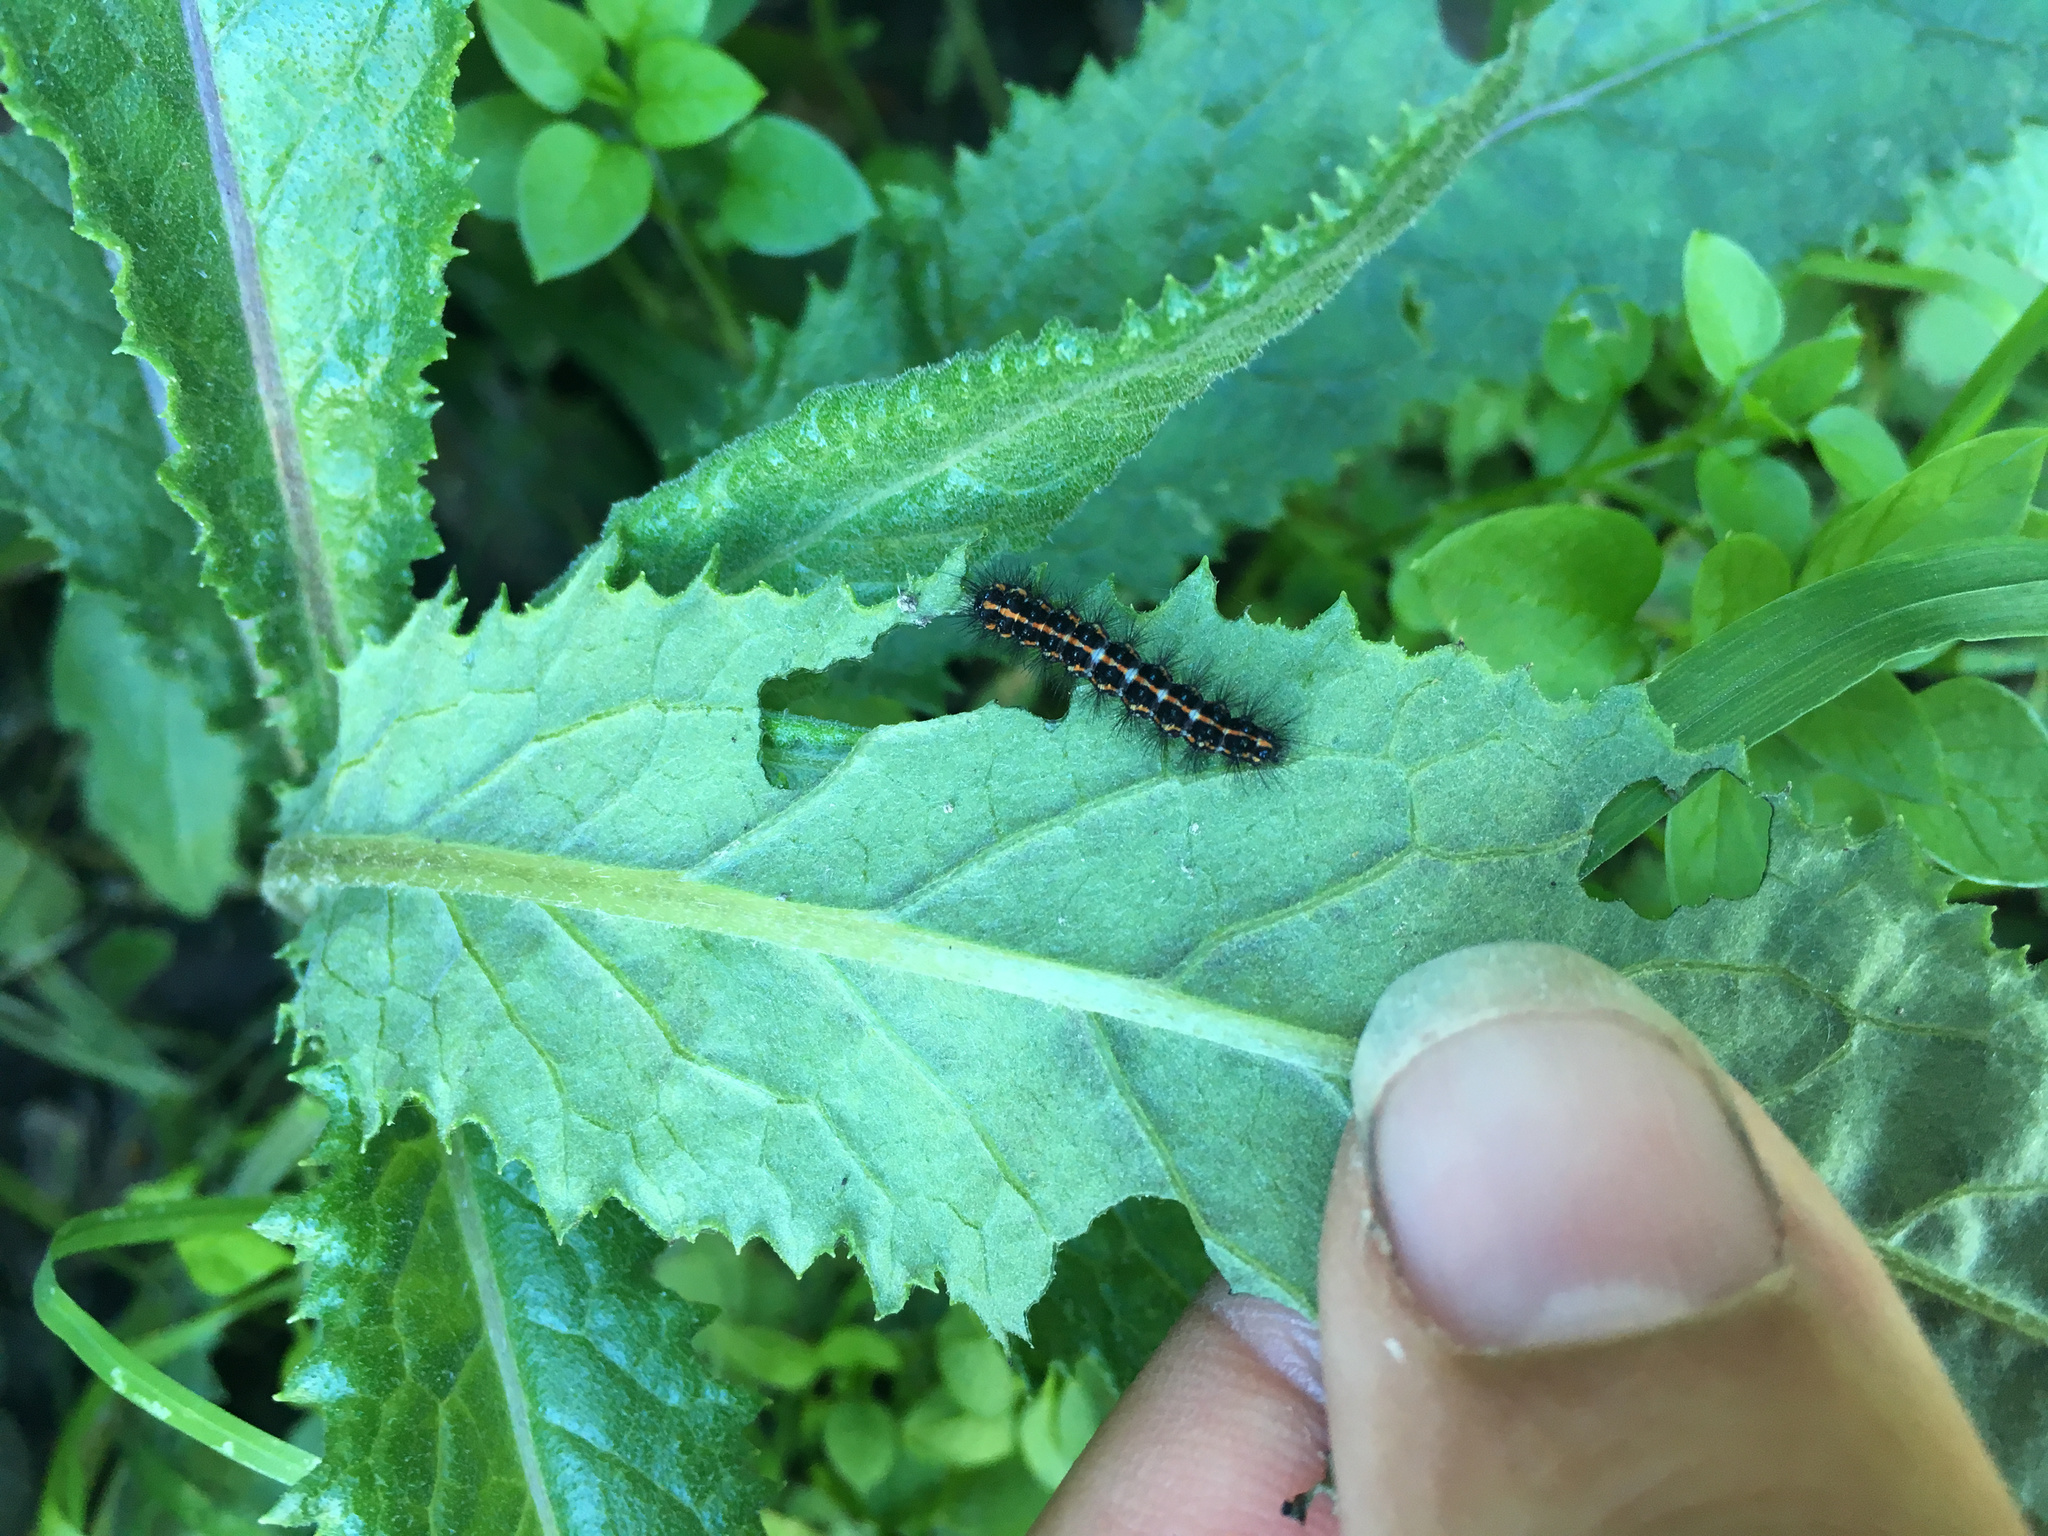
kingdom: Animalia
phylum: Arthropoda
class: Insecta
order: Lepidoptera
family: Erebidae
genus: Nyctemera
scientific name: Nyctemera annulatum
